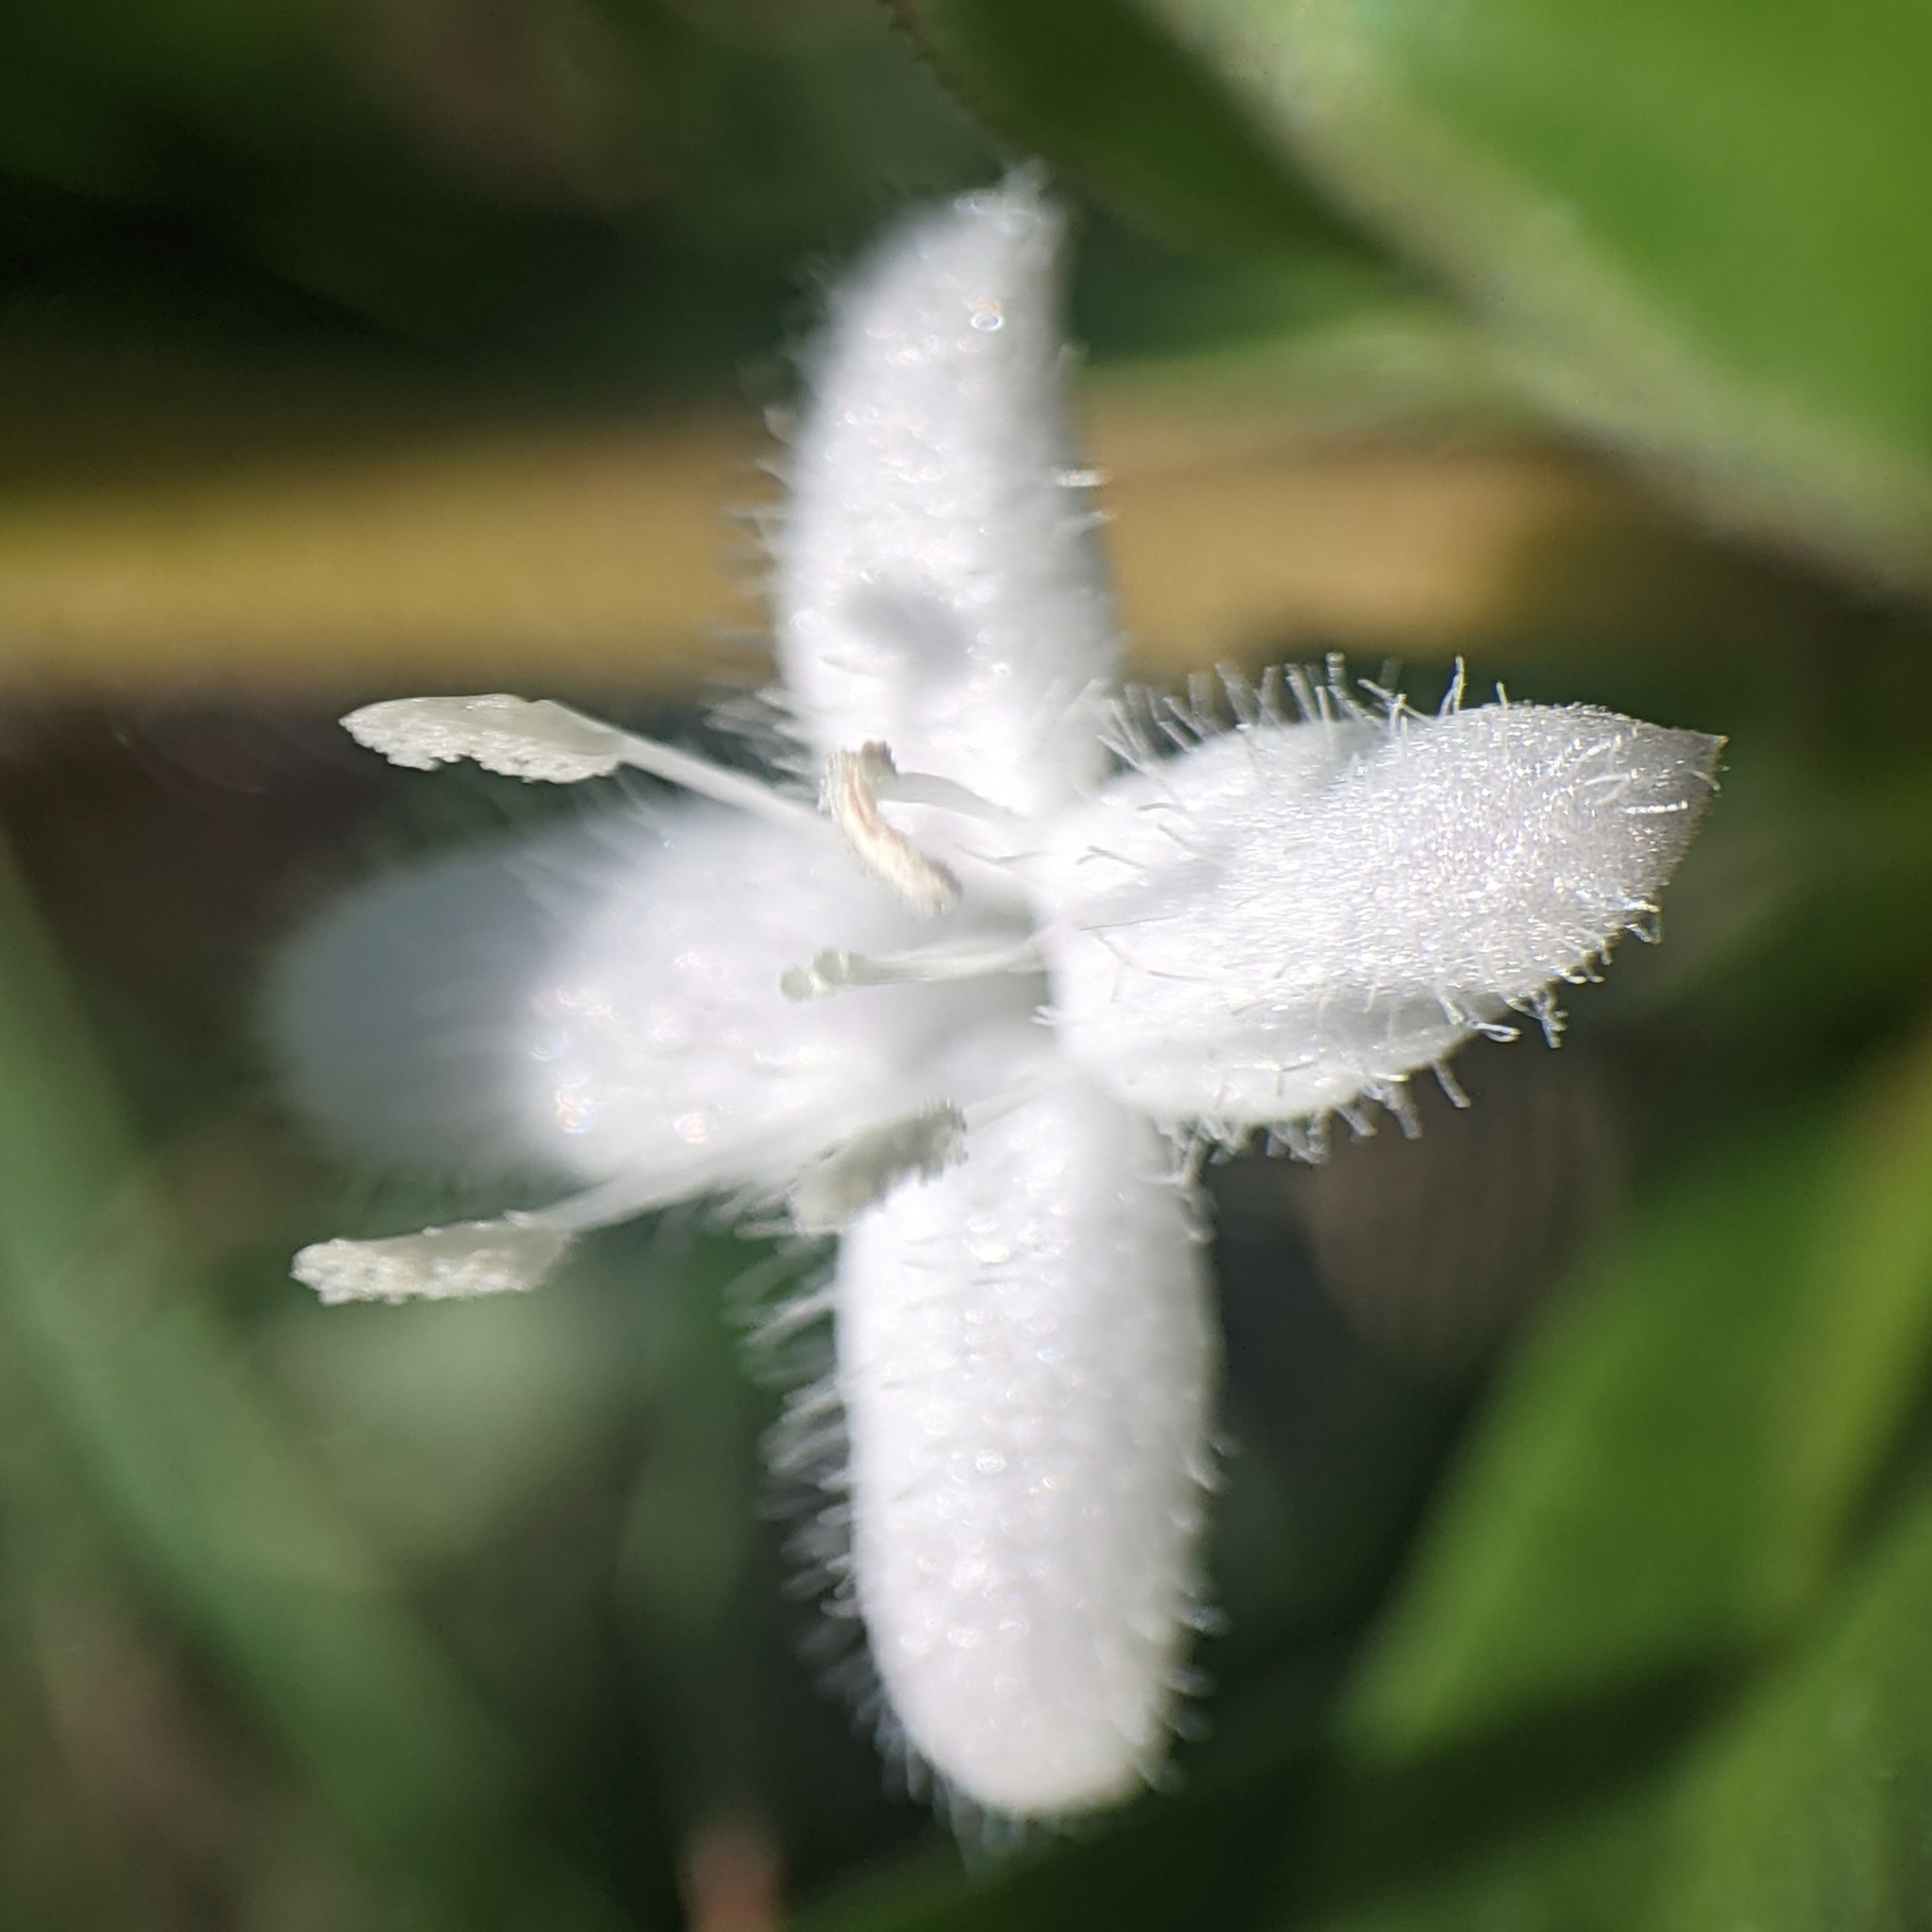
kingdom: Plantae
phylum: Tracheophyta
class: Magnoliopsida
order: Gentianales
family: Rubiaceae
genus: Diodia
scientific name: Diodia virginiana
